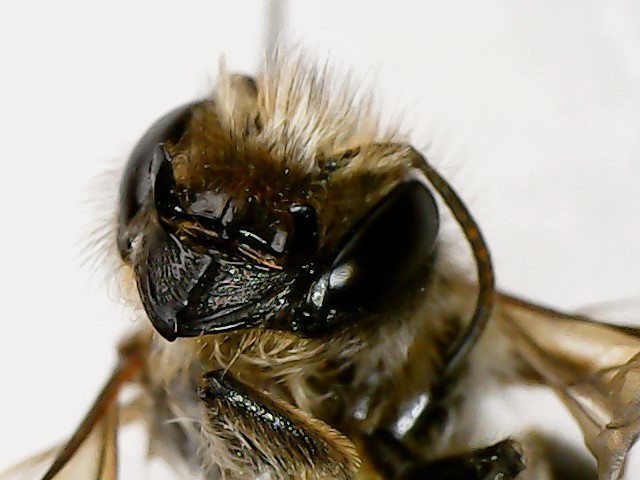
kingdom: Animalia
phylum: Arthropoda
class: Insecta
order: Hymenoptera
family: Megachilidae
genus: Osmia
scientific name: Osmia cornifrons
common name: Horn-faced bee
